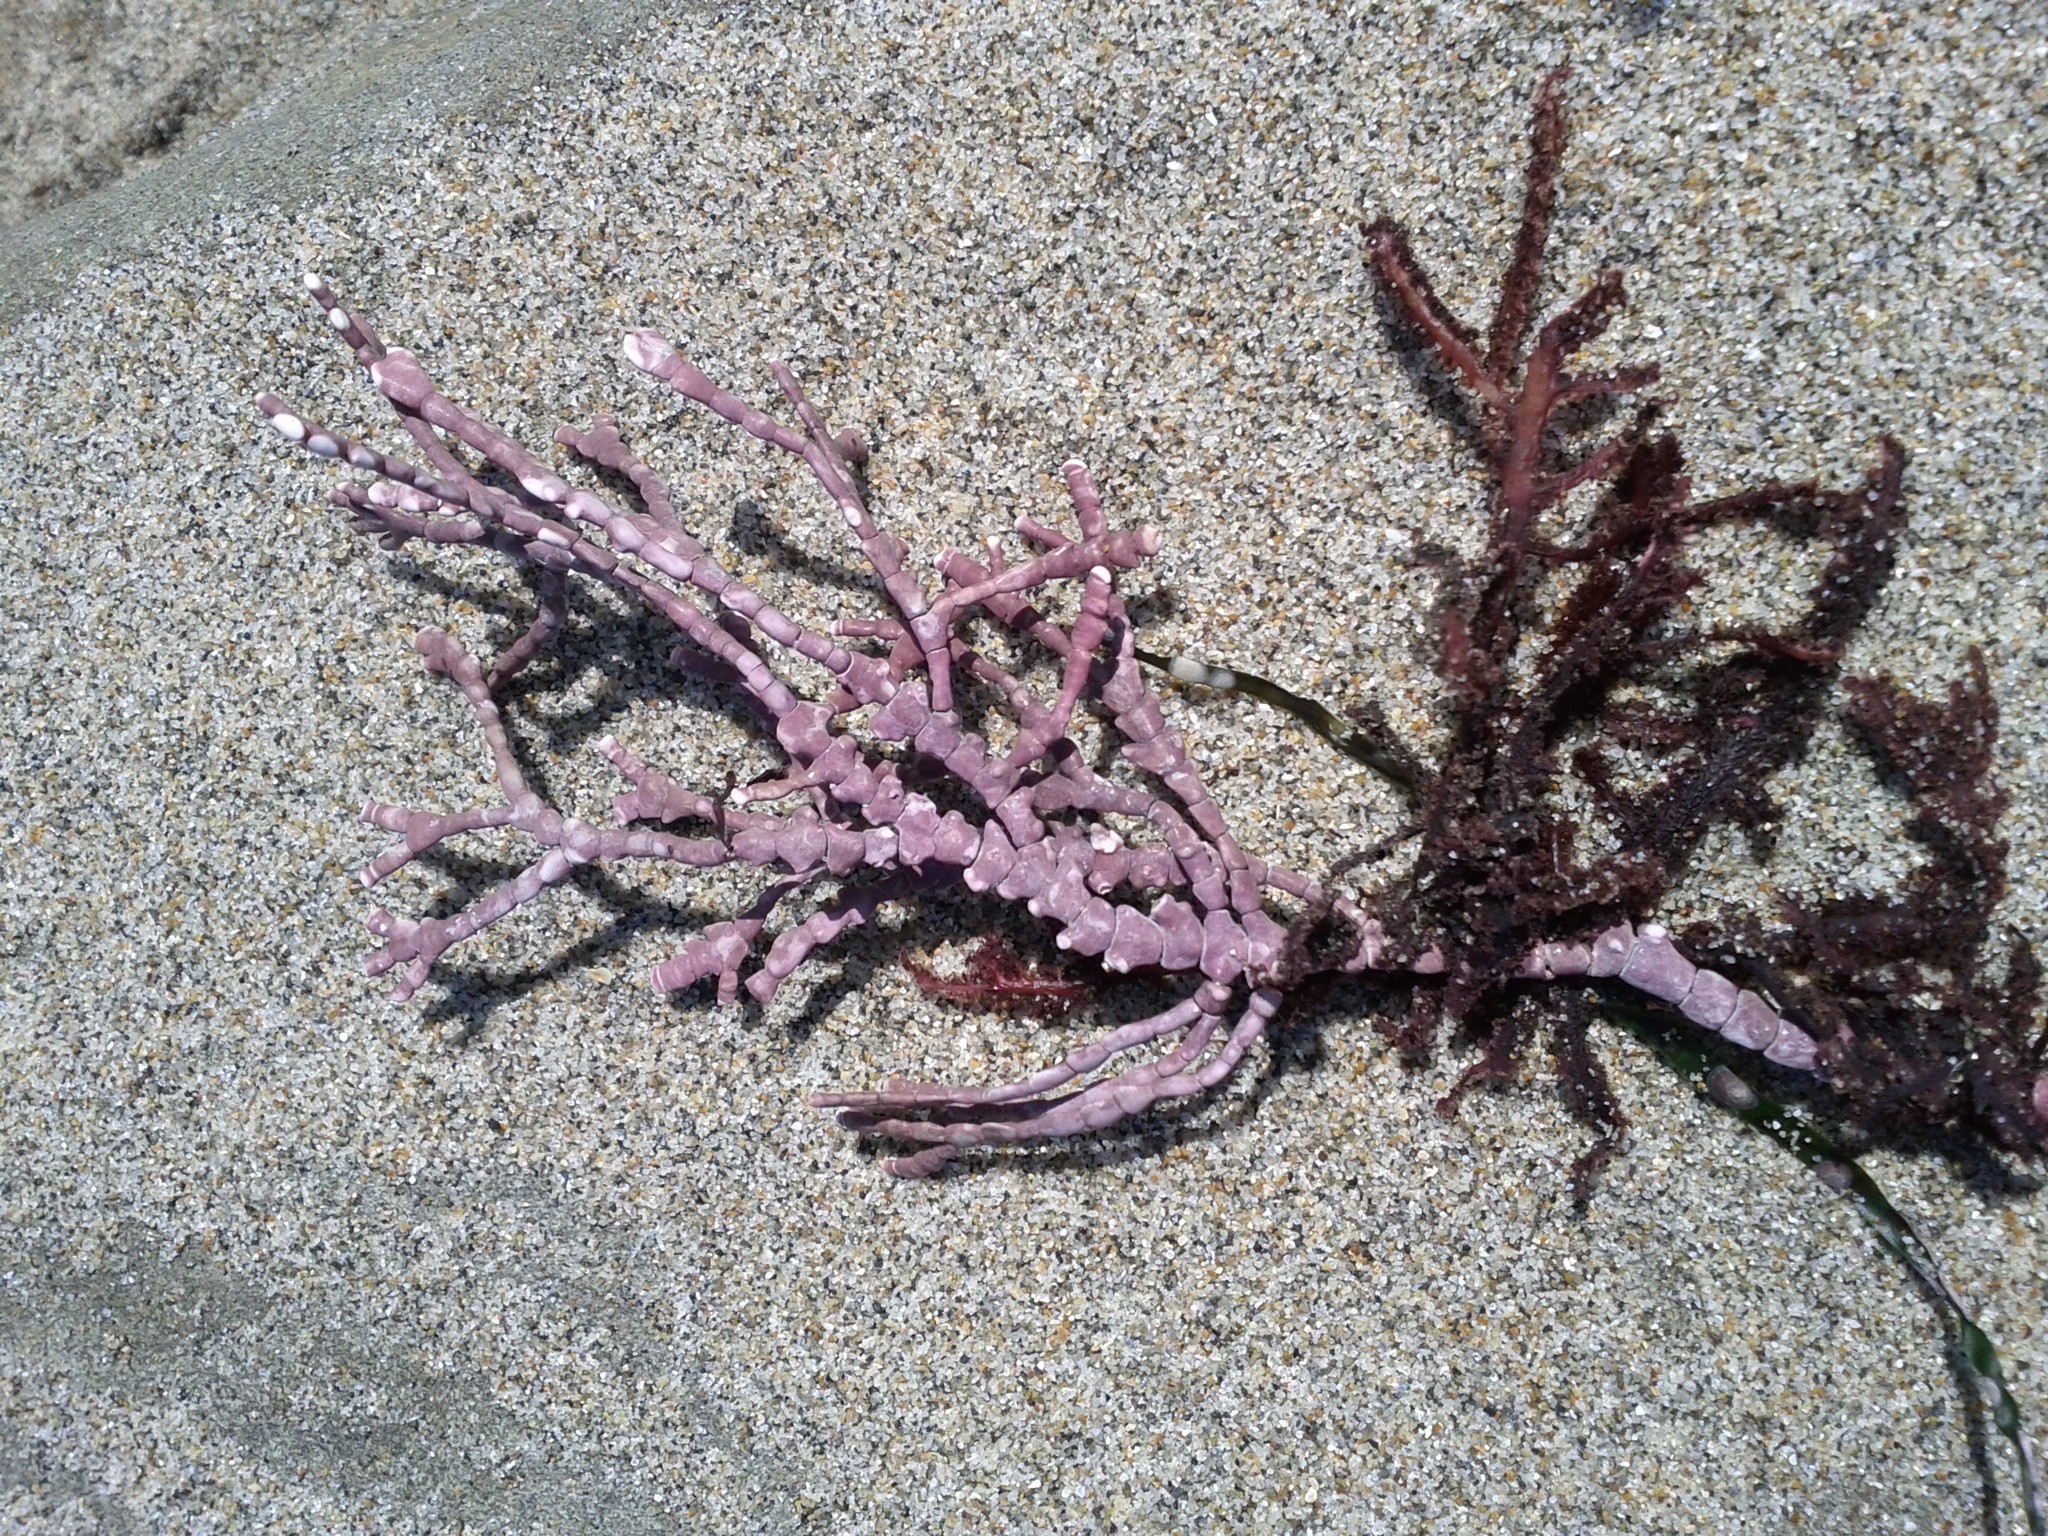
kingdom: Plantae
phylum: Rhodophyta
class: Florideophyceae
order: Corallinales
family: Corallinaceae
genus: Calliarthron
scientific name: Calliarthron tuberculosum
